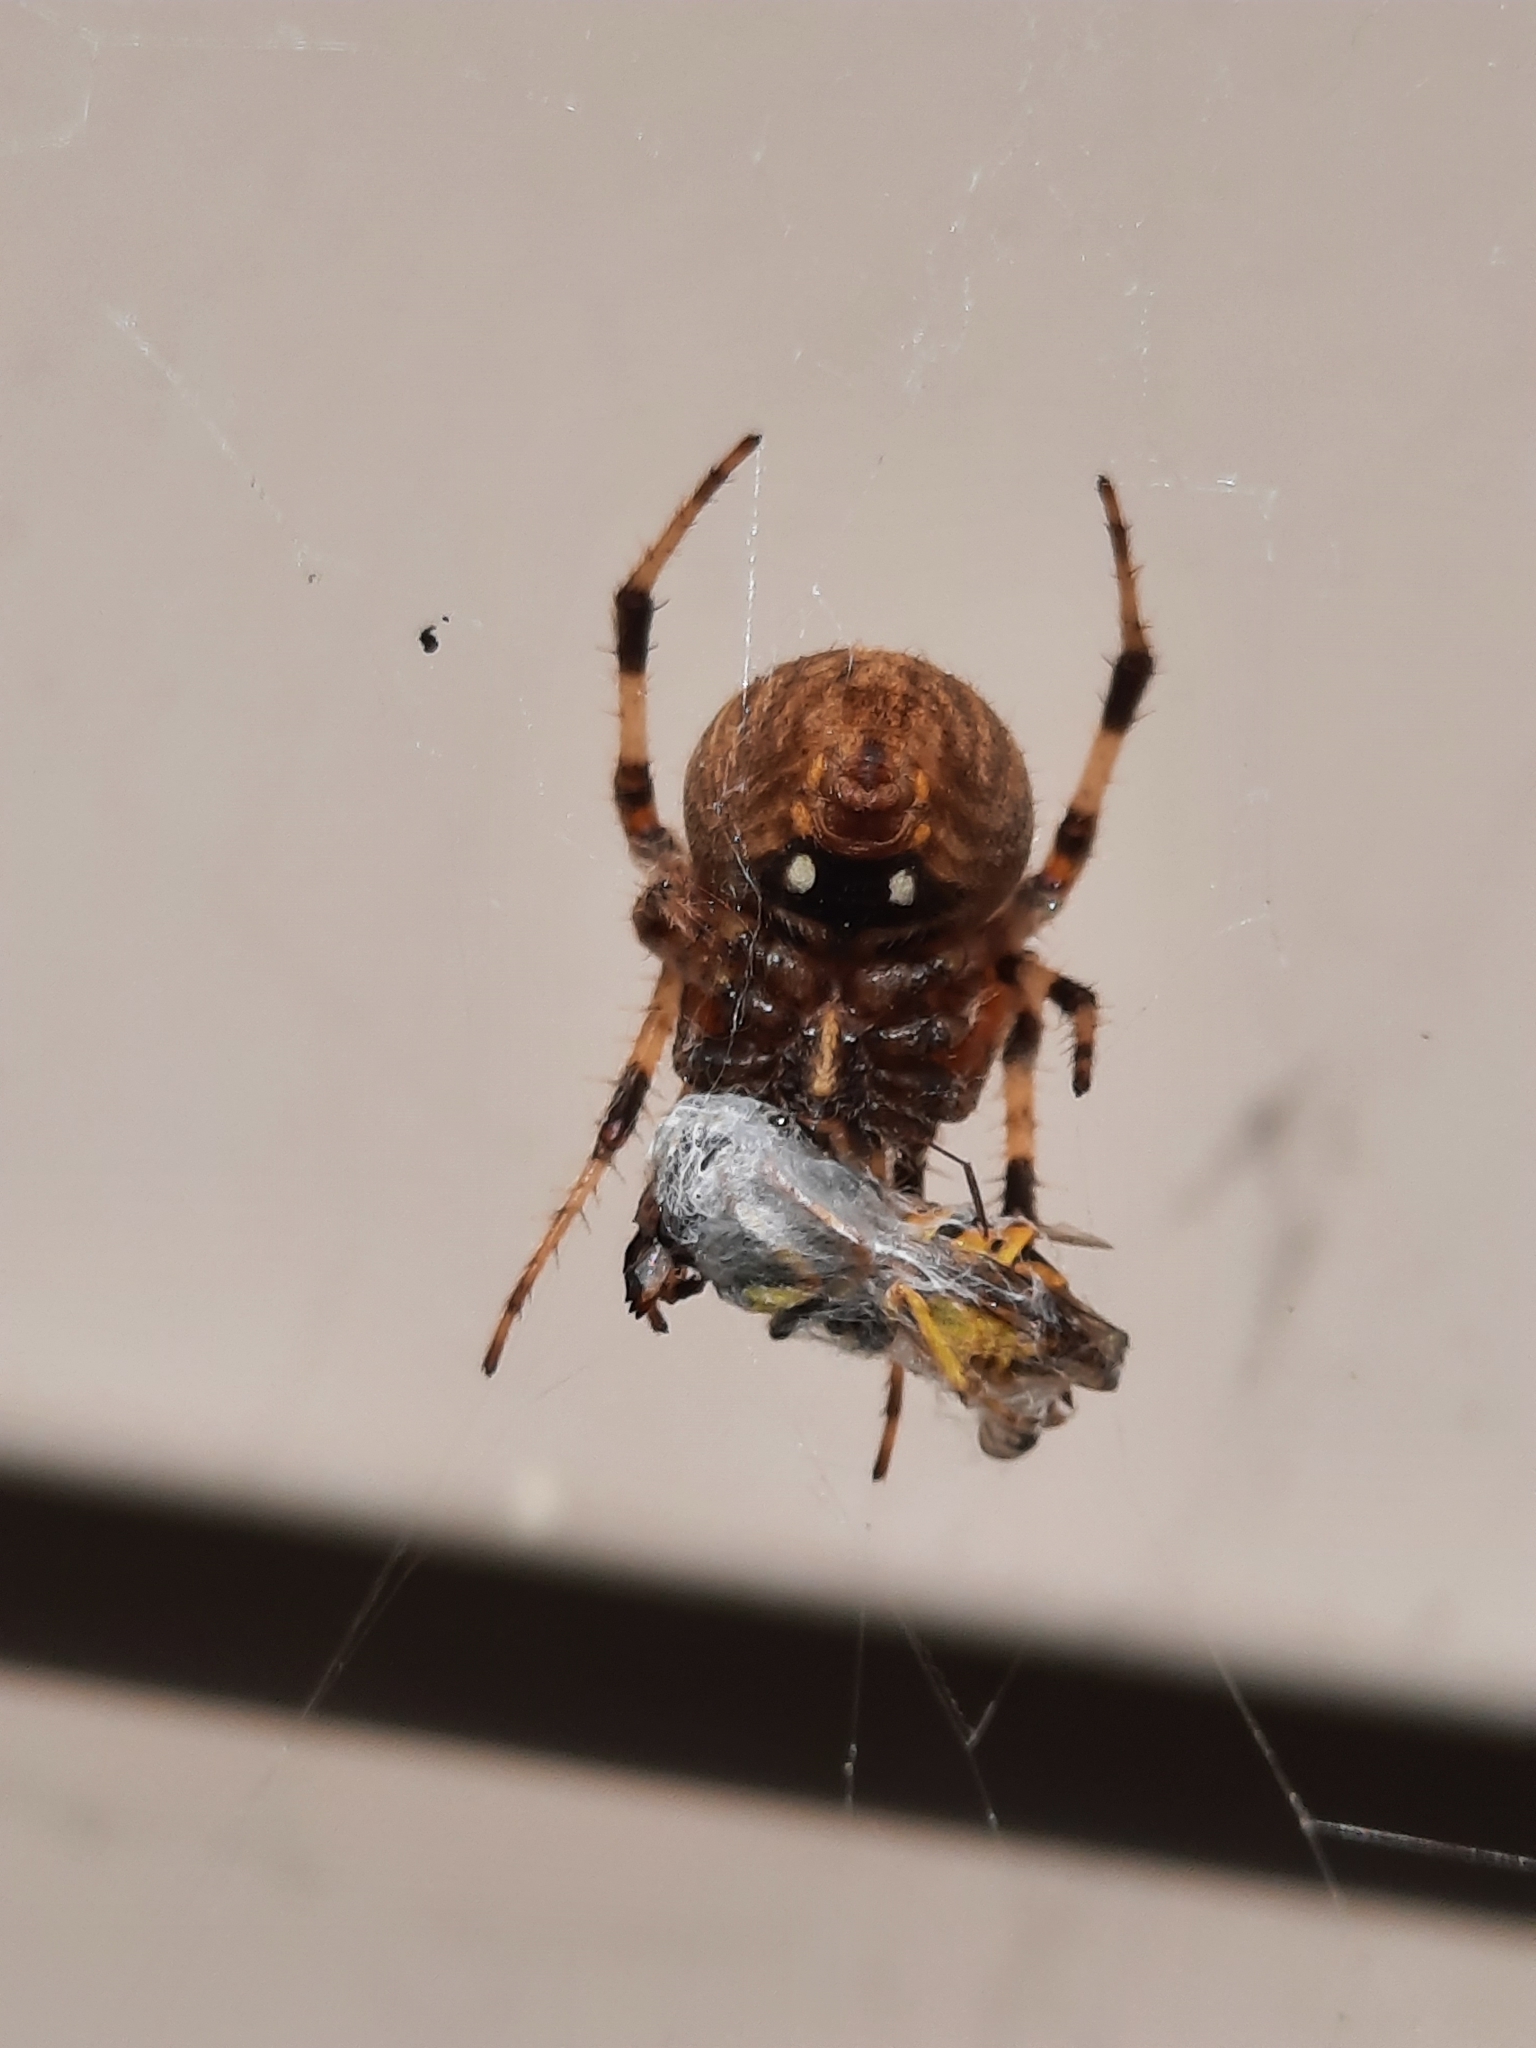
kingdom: Animalia
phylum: Arthropoda
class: Arachnida
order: Araneae
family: Araneidae
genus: Neoscona
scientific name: Neoscona crucifera
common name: Spotted orbweaver
